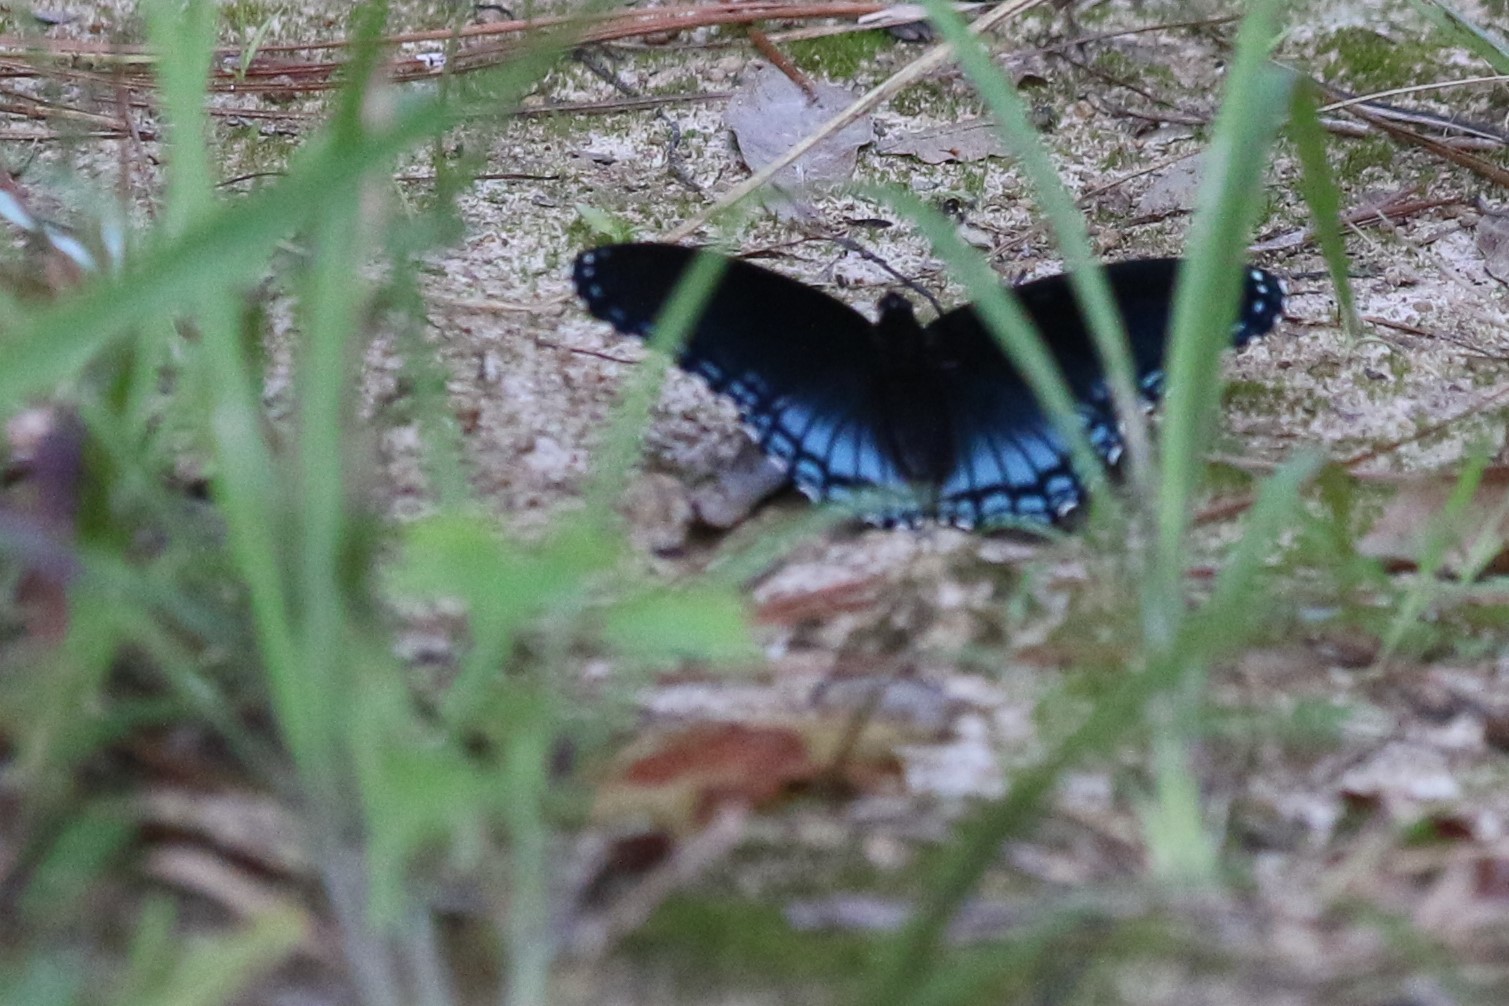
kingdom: Animalia
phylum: Arthropoda
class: Insecta
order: Lepidoptera
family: Nymphalidae
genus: Limenitis
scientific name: Limenitis astyanax
